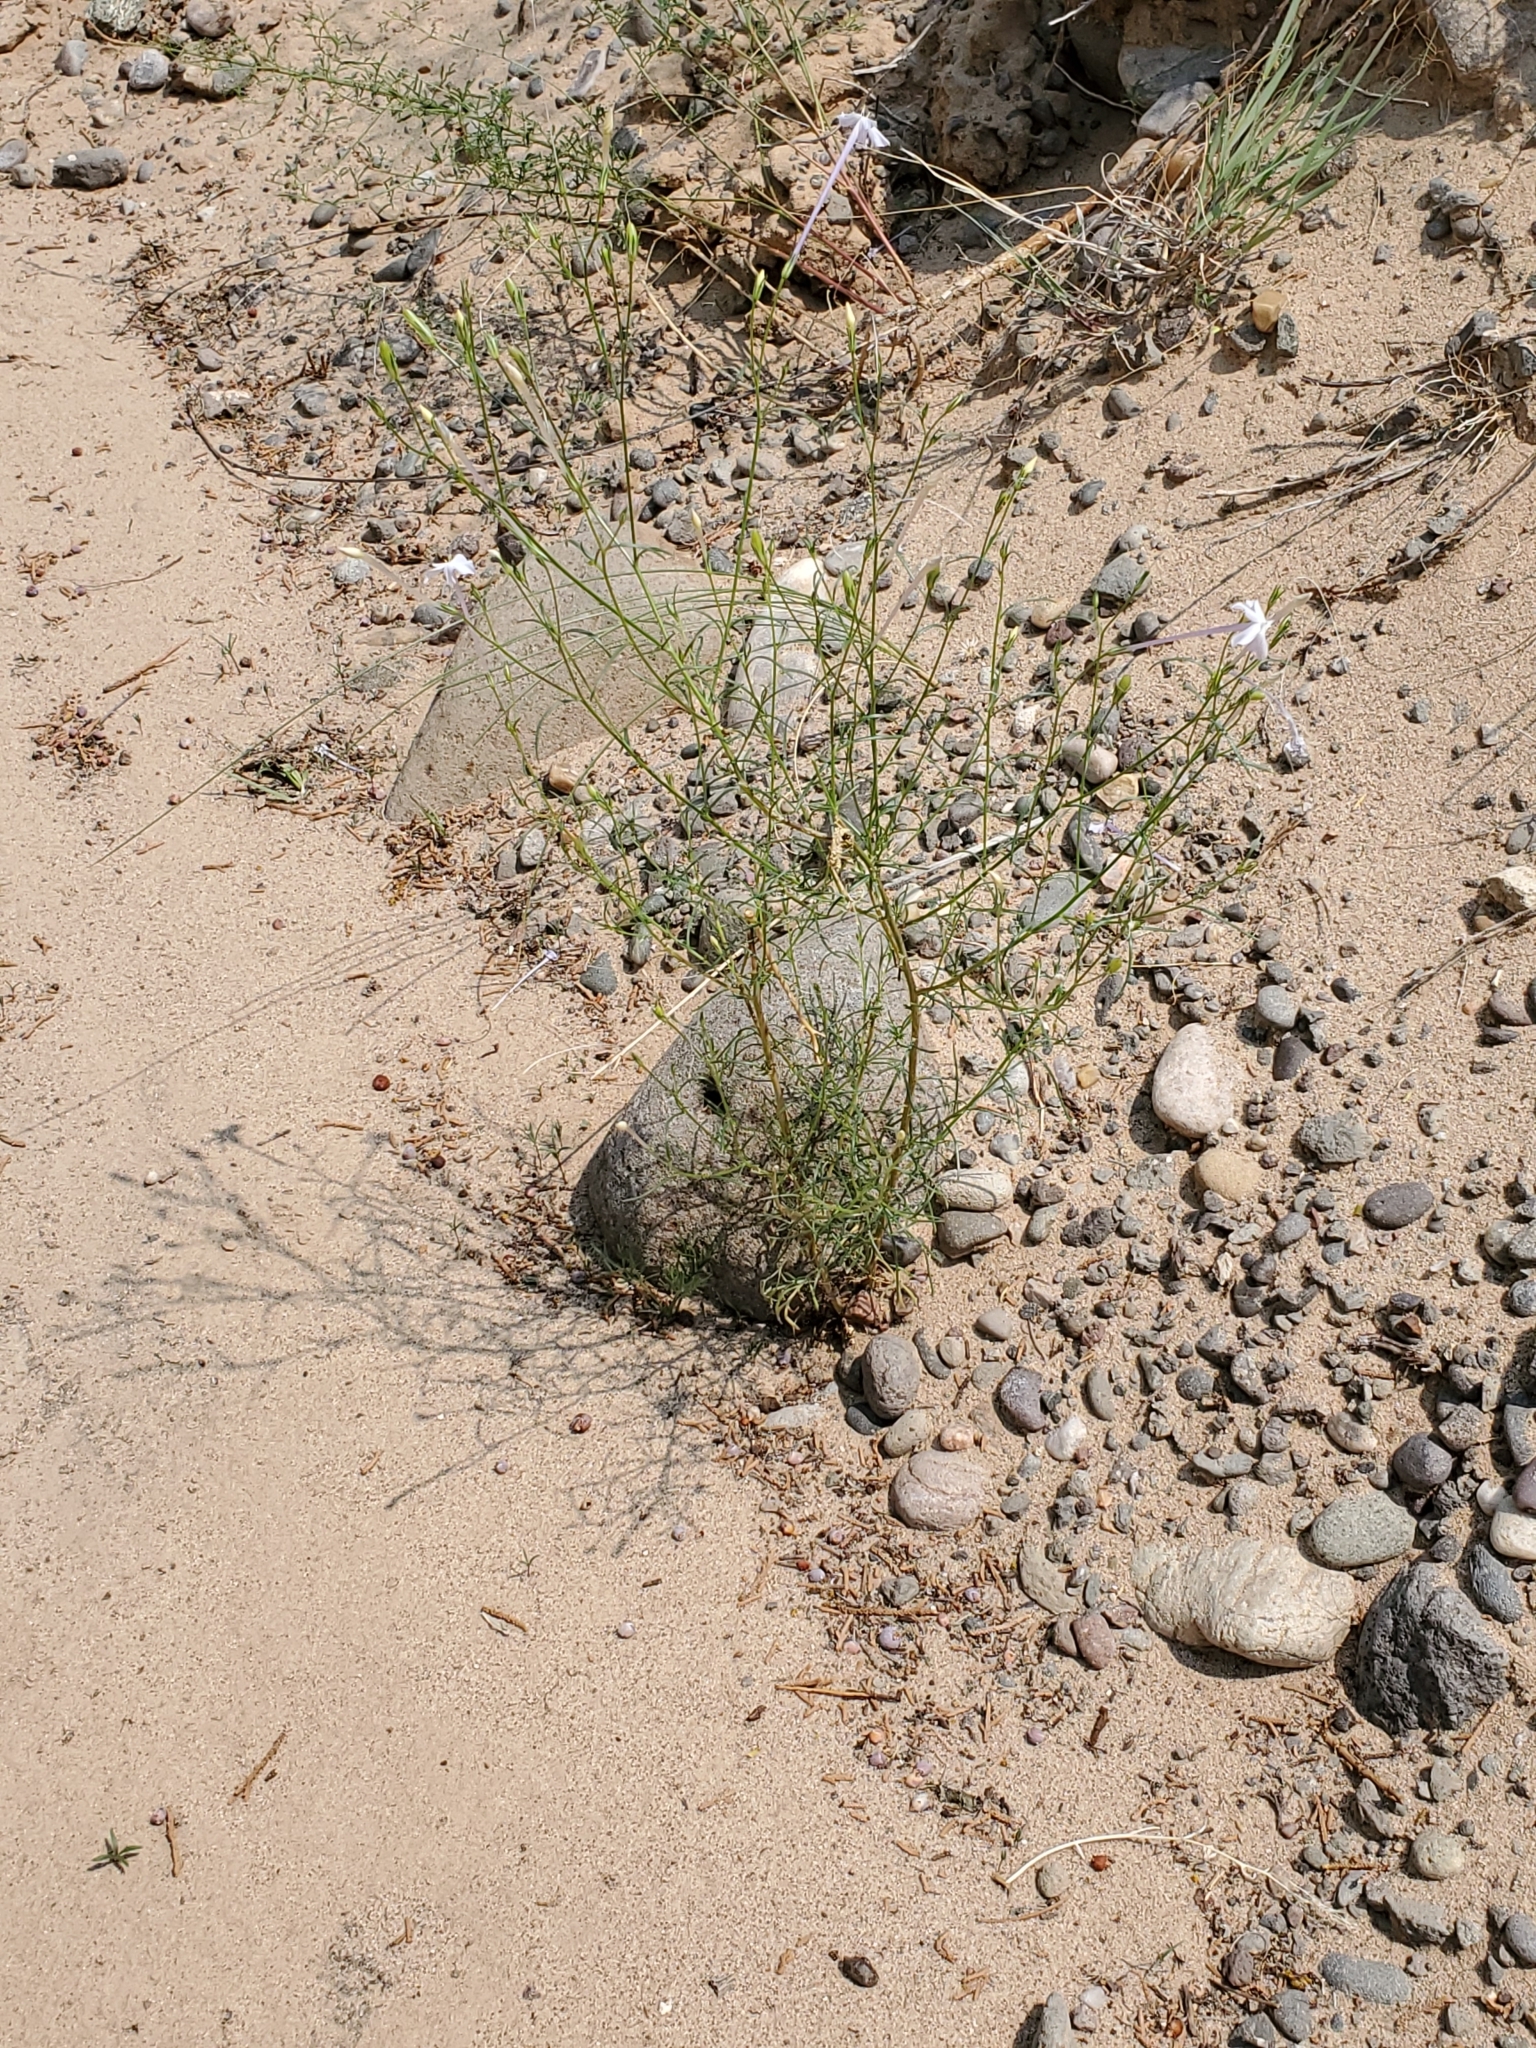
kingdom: Plantae
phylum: Tracheophyta
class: Magnoliopsida
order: Ericales
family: Polemoniaceae
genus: Ipomopsis
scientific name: Ipomopsis longiflora
